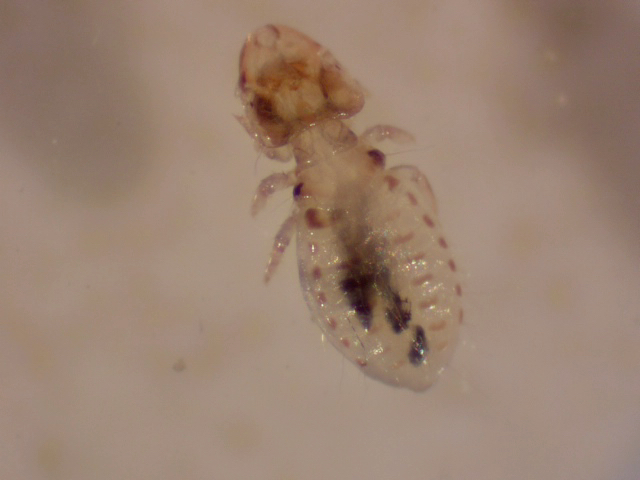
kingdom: Animalia
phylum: Arthropoda
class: Insecta
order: Psocodea
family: Philopteridae
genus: Rallicola
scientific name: Rallicola lugens
